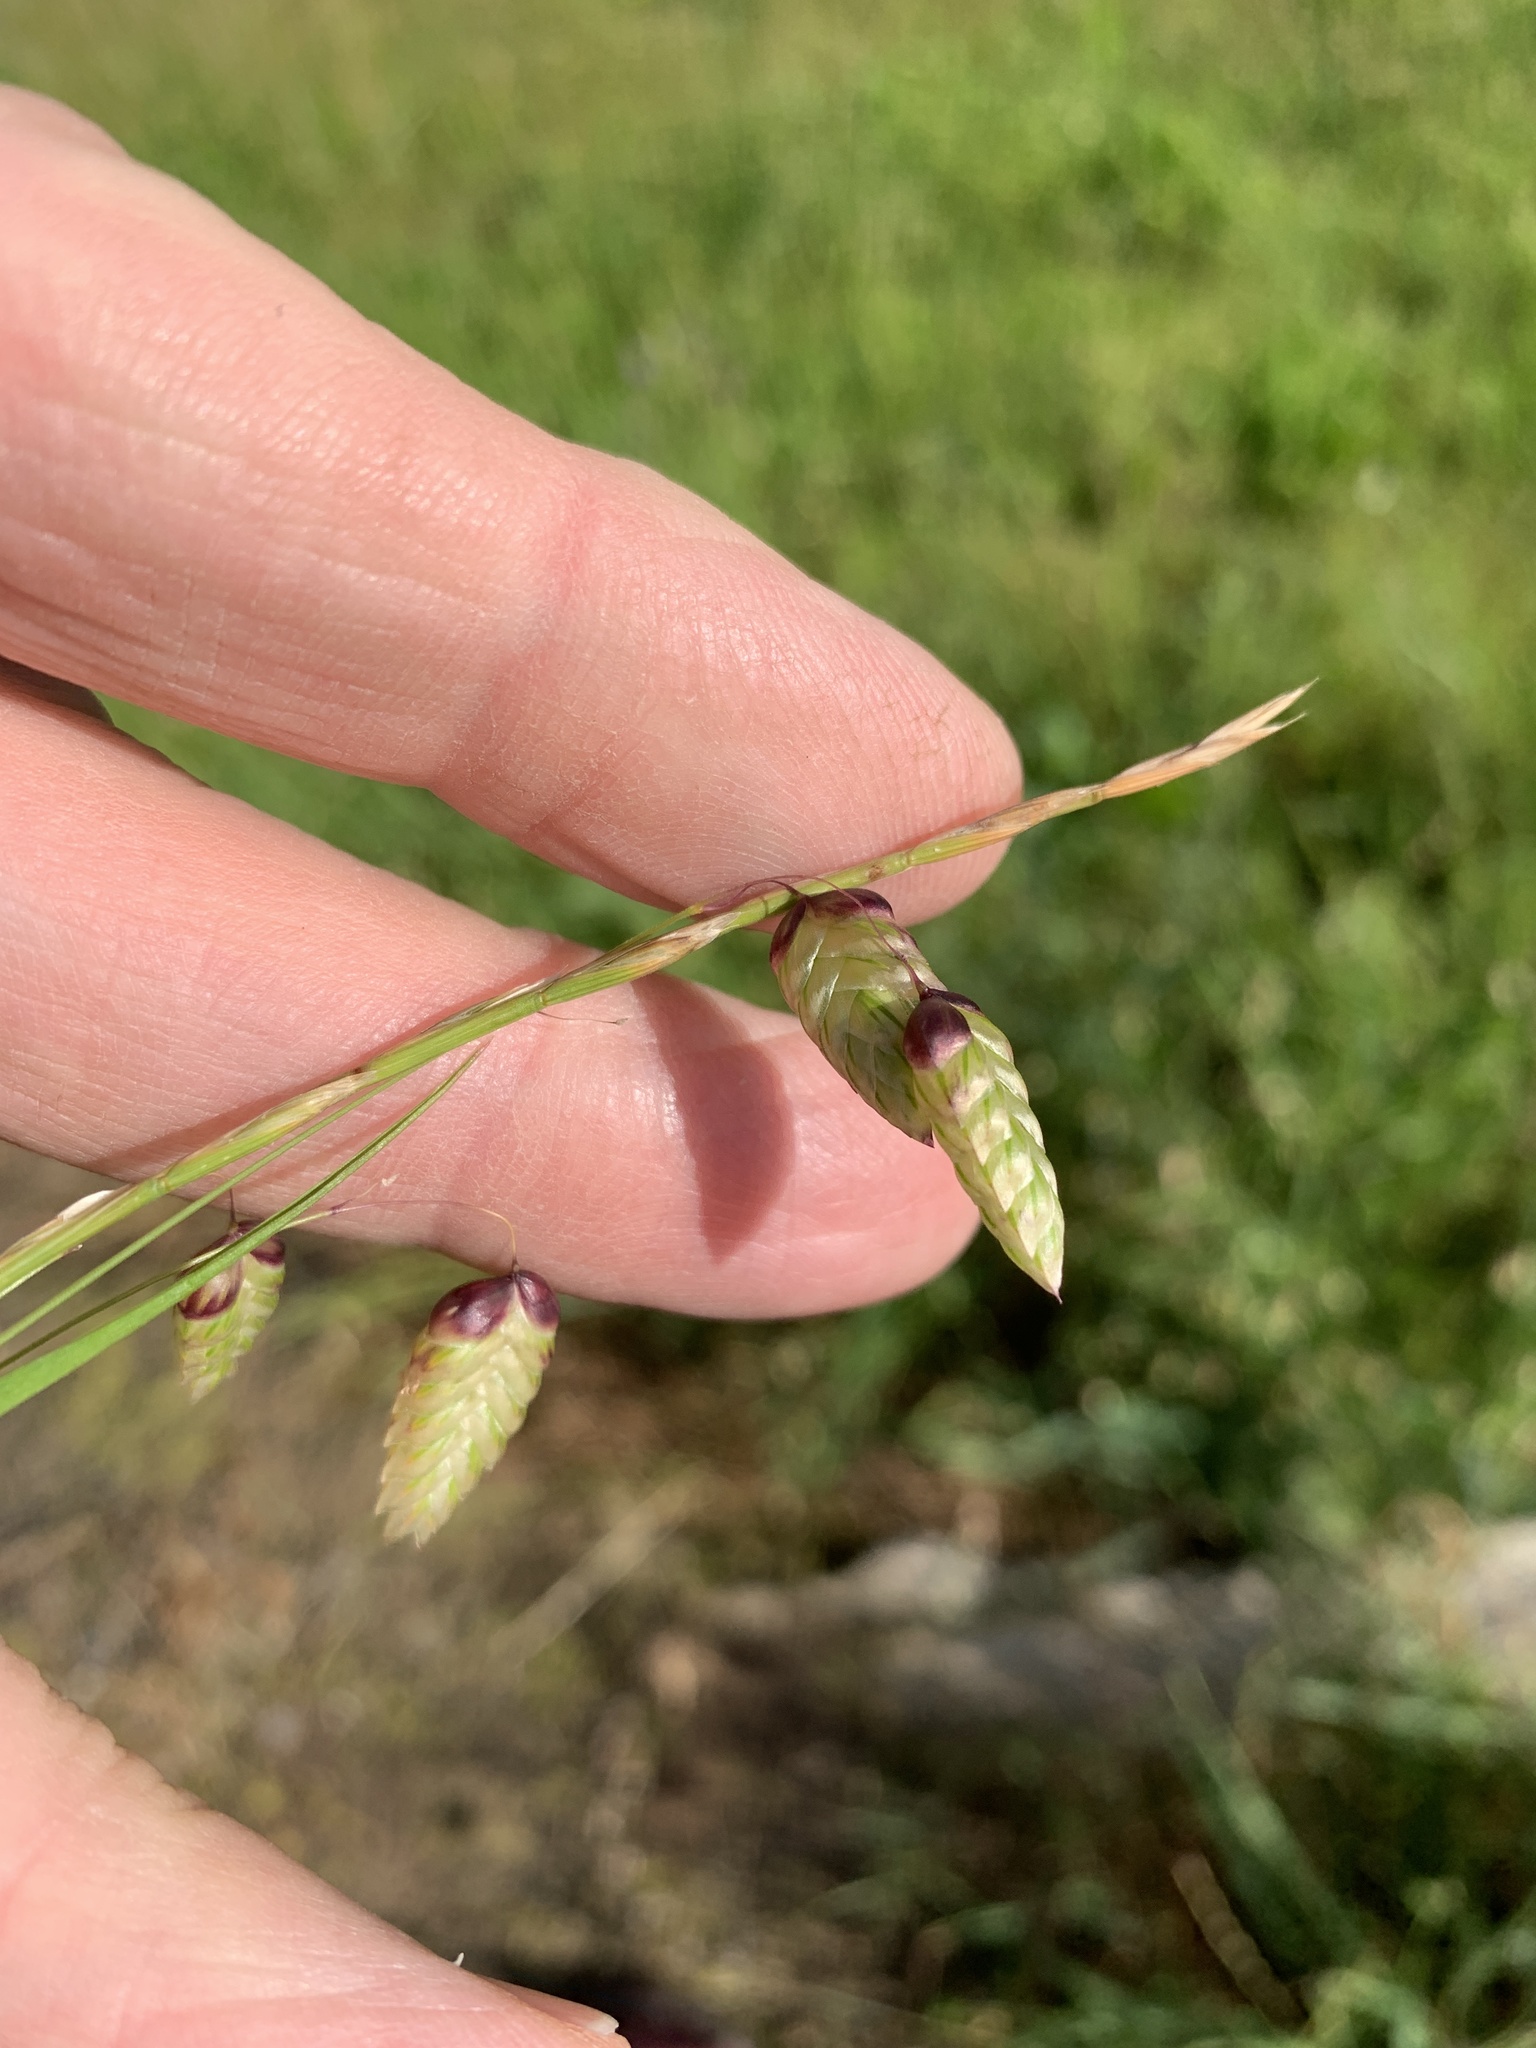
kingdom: Plantae
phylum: Tracheophyta
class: Liliopsida
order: Poales
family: Poaceae
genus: Briza
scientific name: Briza maxima
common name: Big quakinggrass
